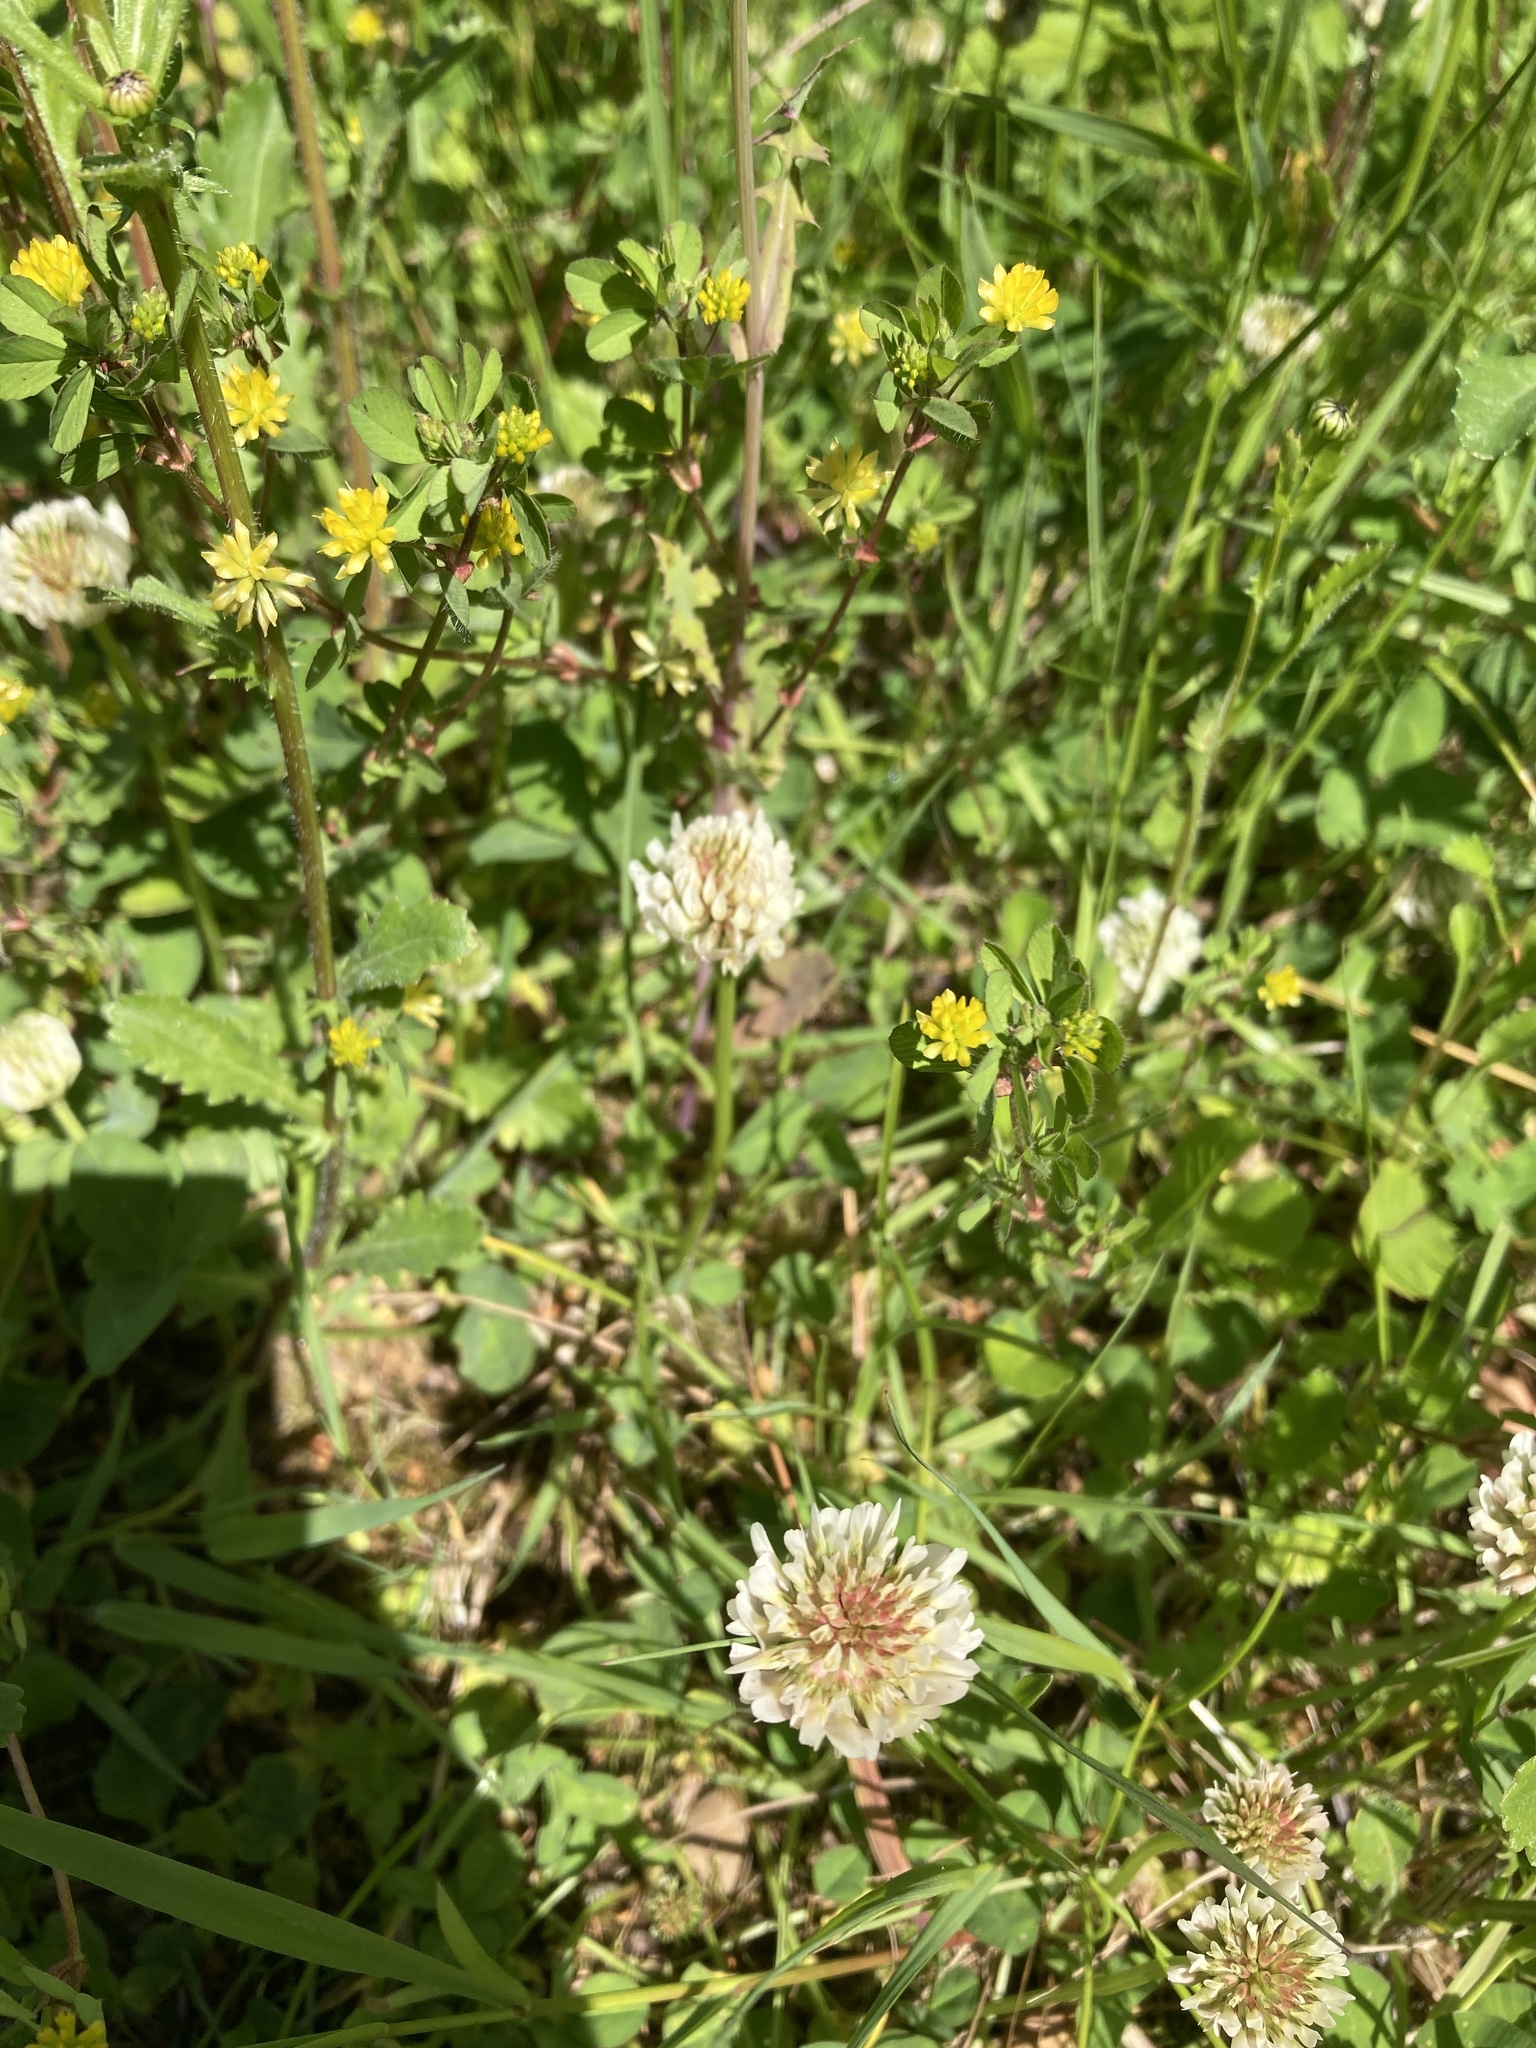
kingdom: Plantae
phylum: Tracheophyta
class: Magnoliopsida
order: Fabales
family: Fabaceae
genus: Trifolium
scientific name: Trifolium dubium
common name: Suckling clover
